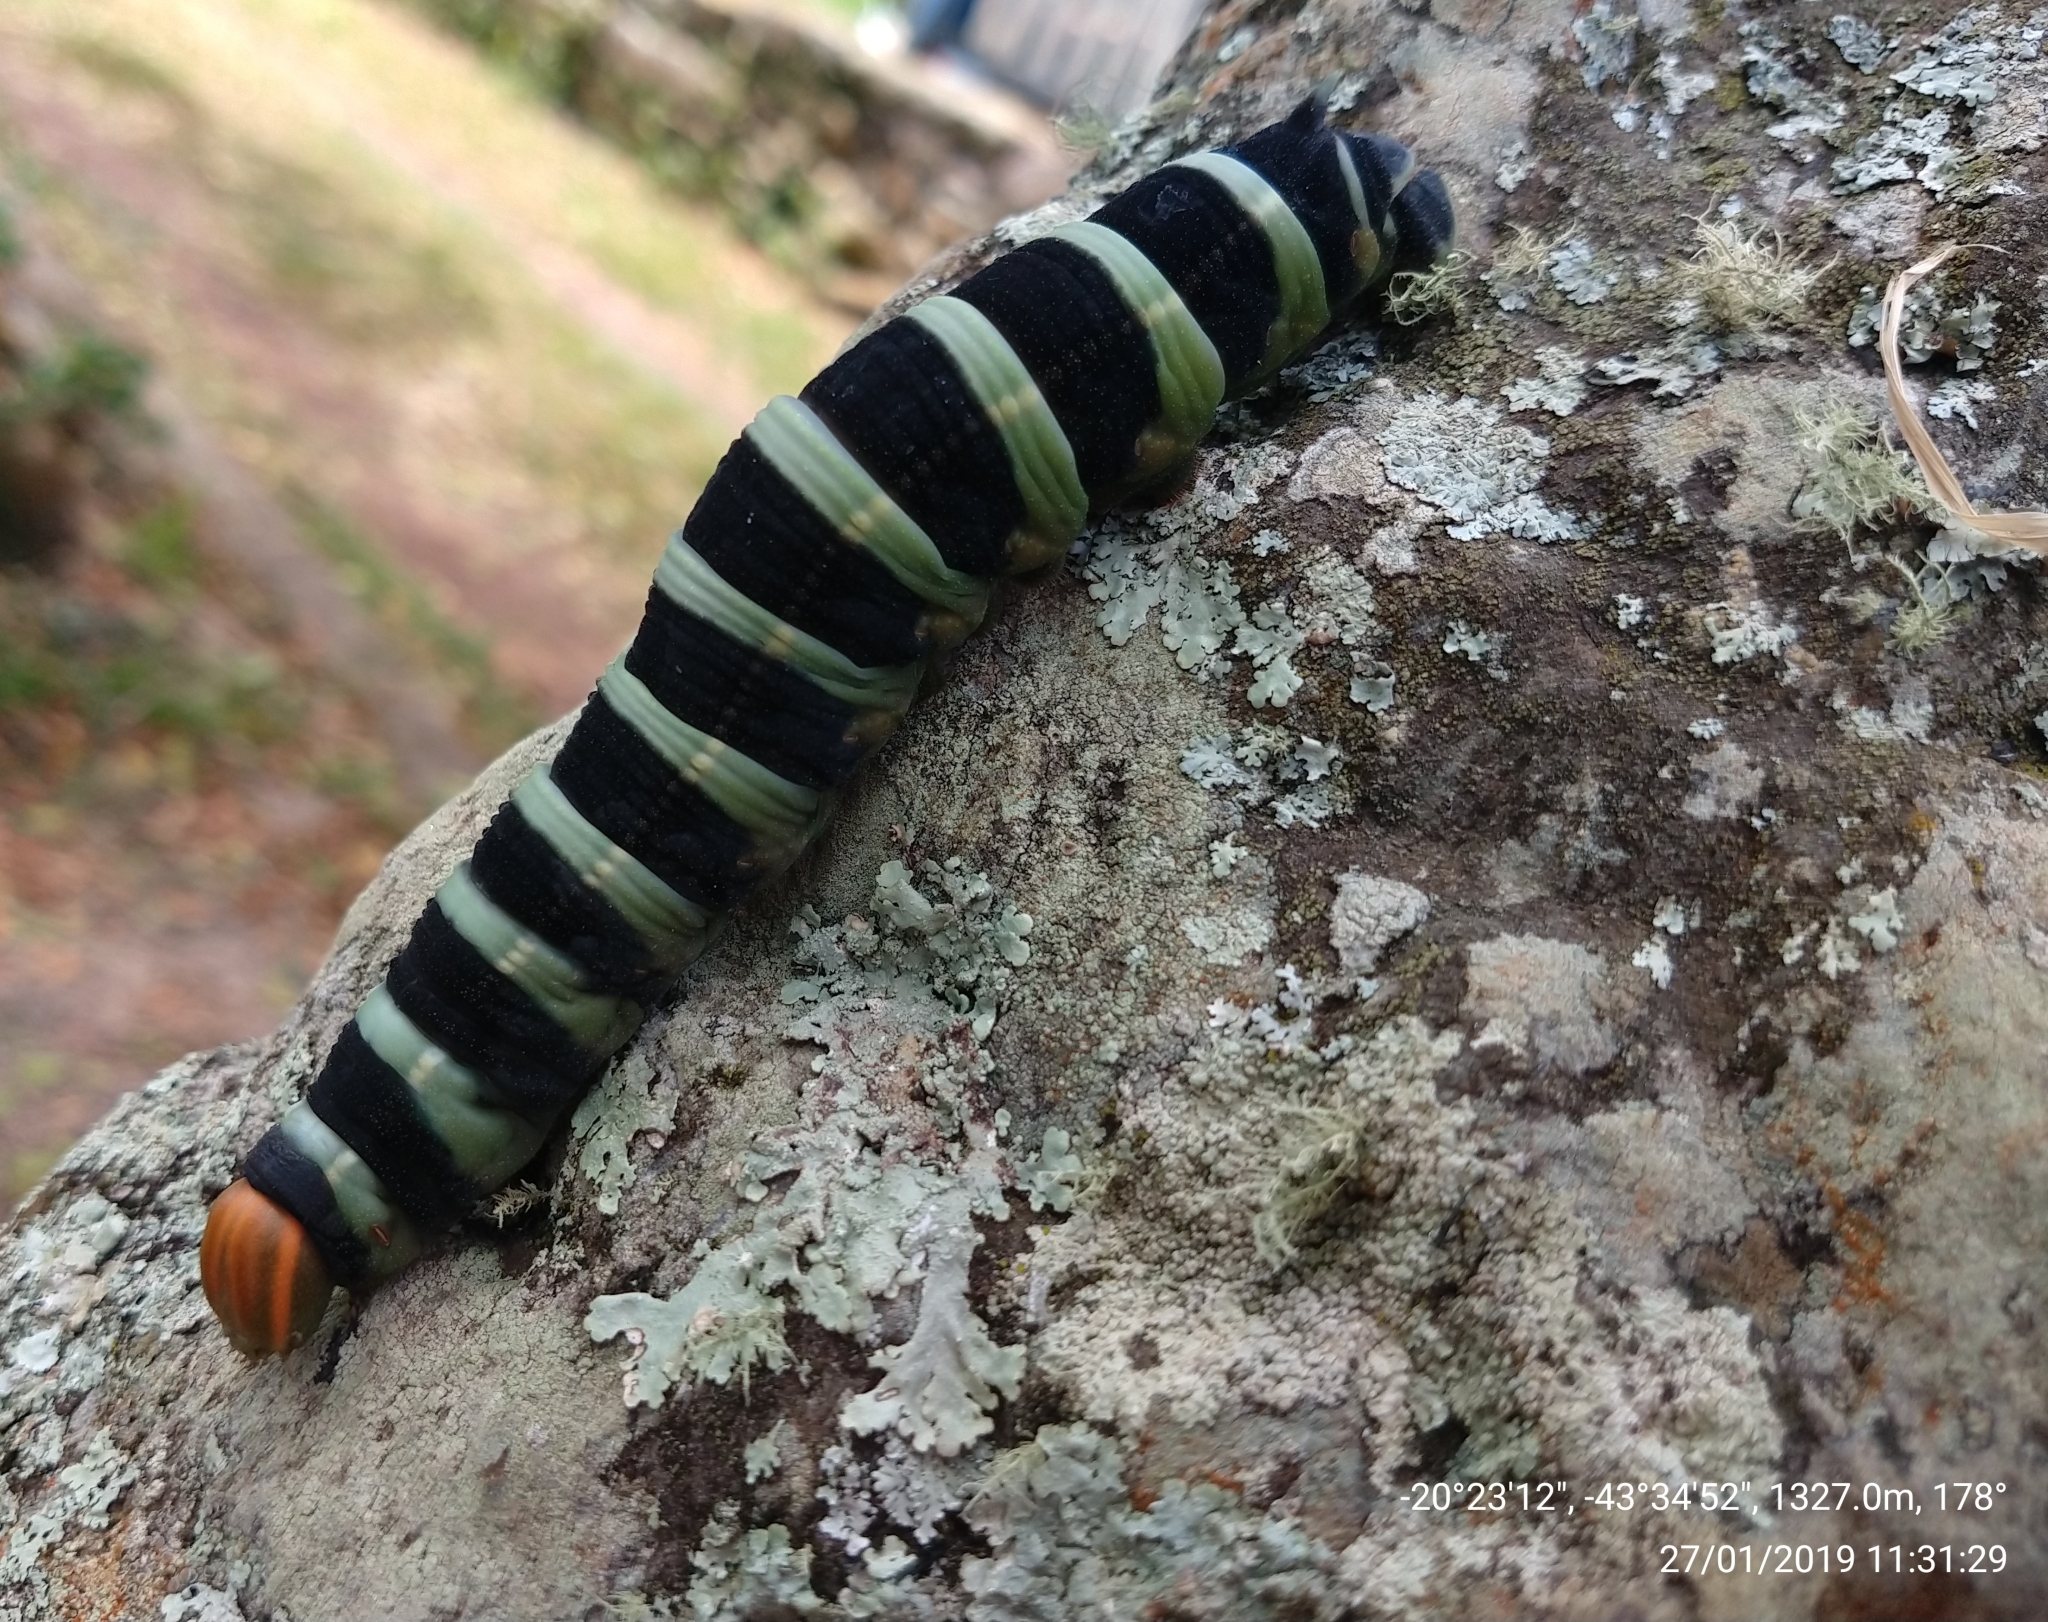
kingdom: Animalia
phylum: Arthropoda
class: Insecta
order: Lepidoptera
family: Sphingidae
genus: Pachylia
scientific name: Pachylia syces
